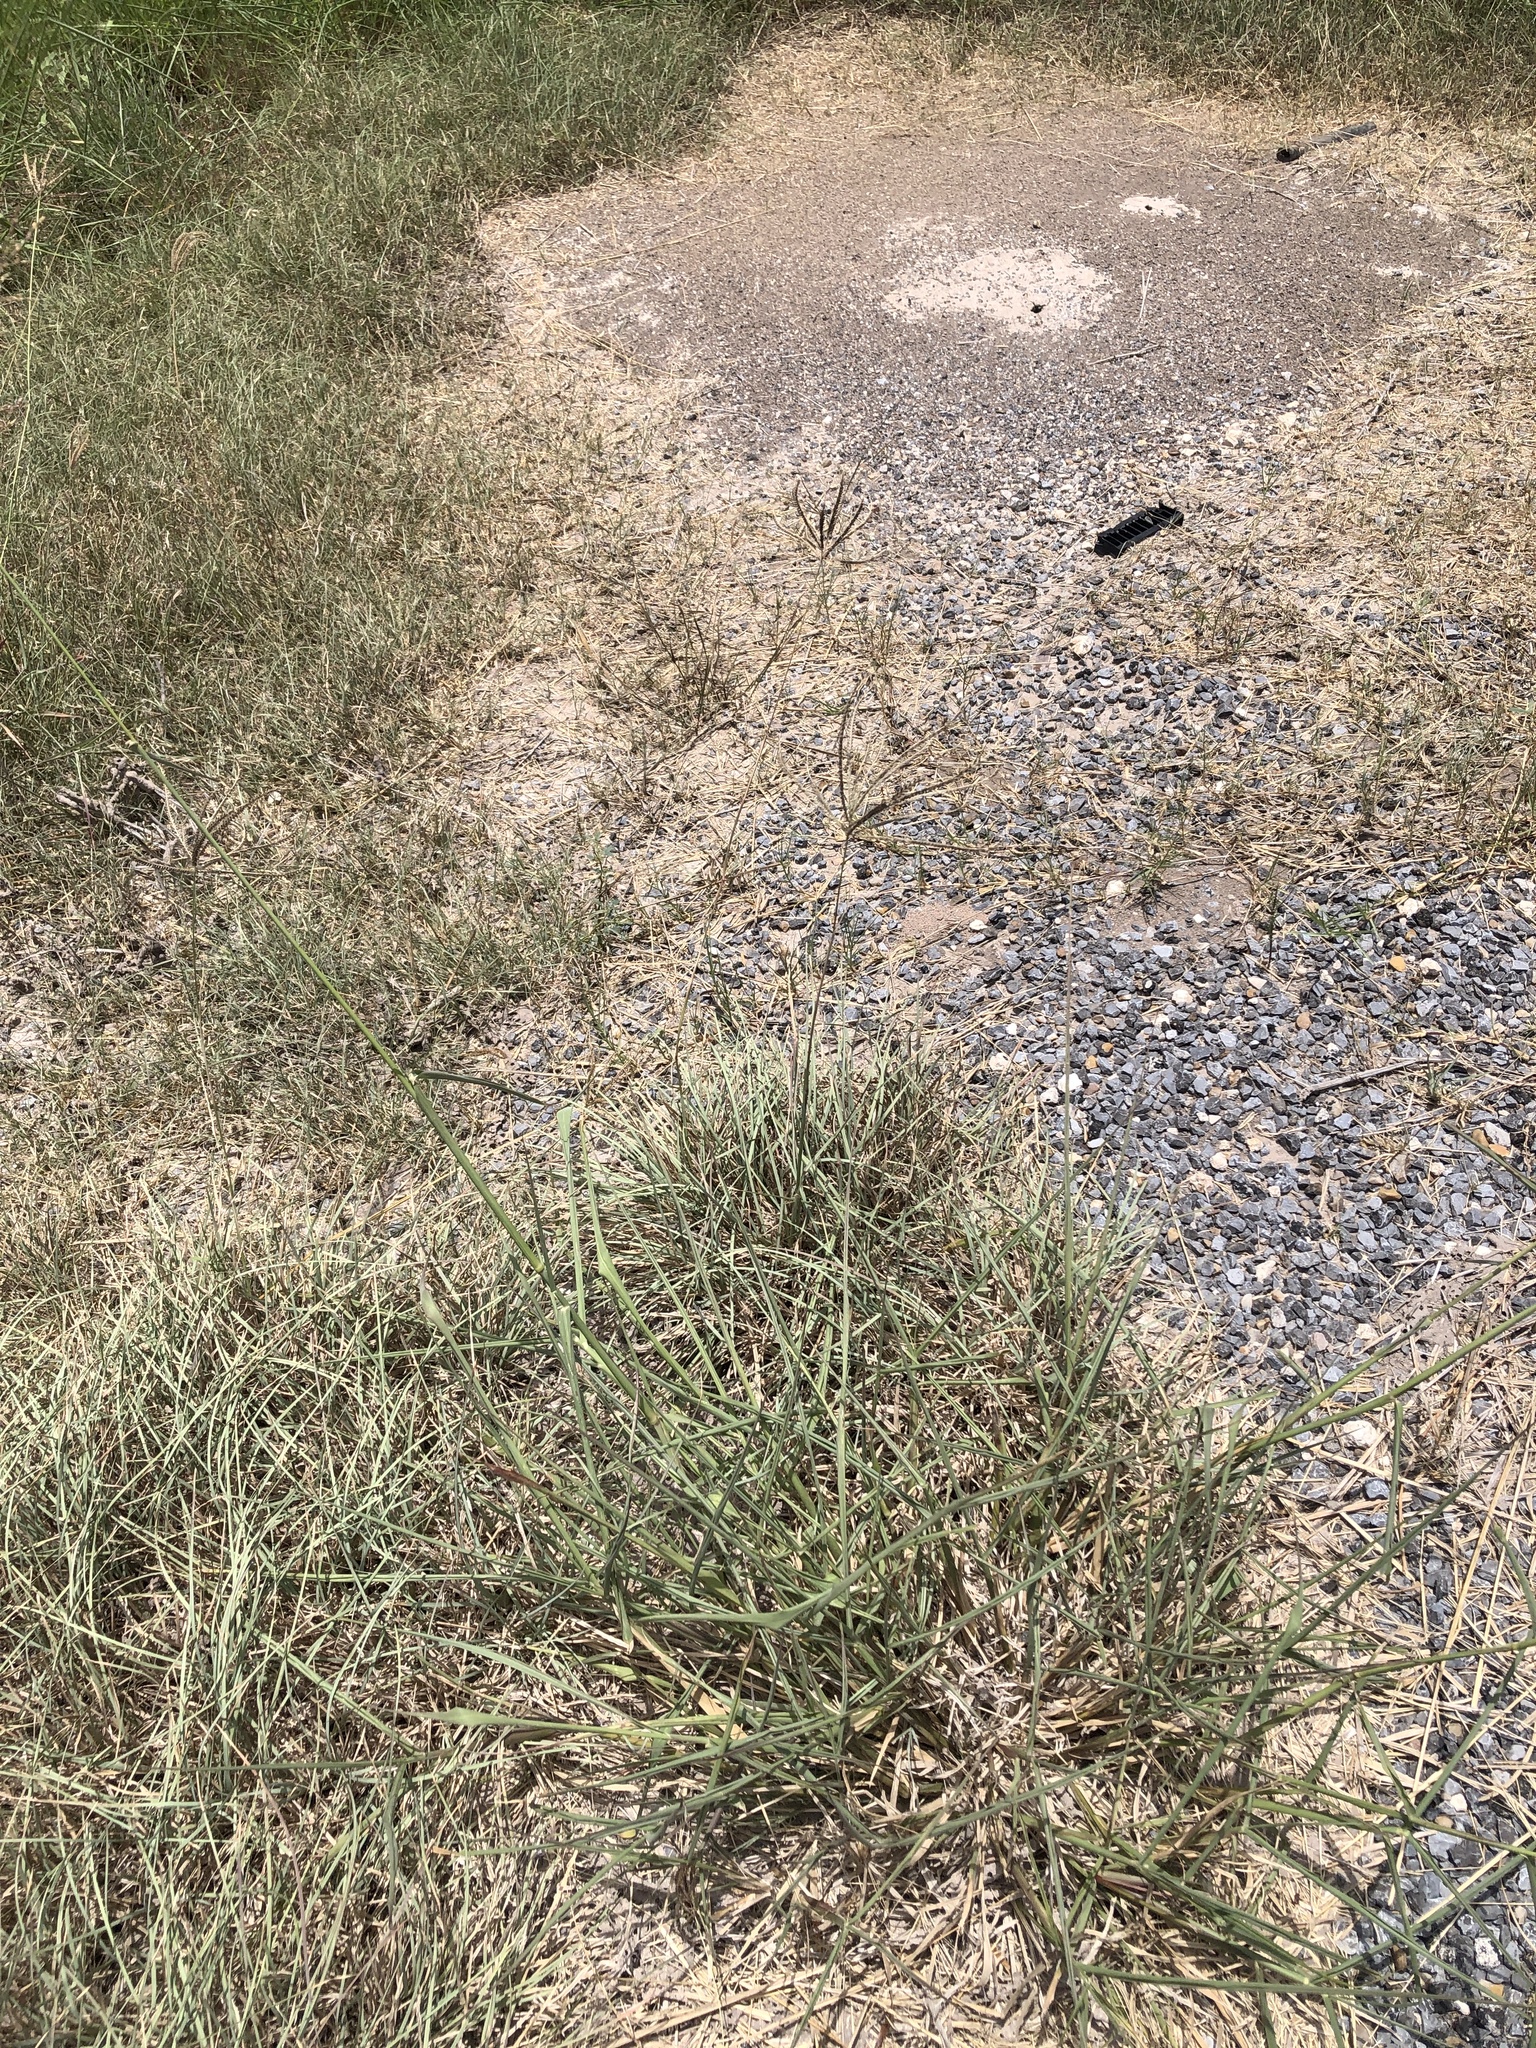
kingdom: Plantae
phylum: Tracheophyta
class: Liliopsida
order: Poales
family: Poaceae
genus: Chloris
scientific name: Chloris subdolichostachya
